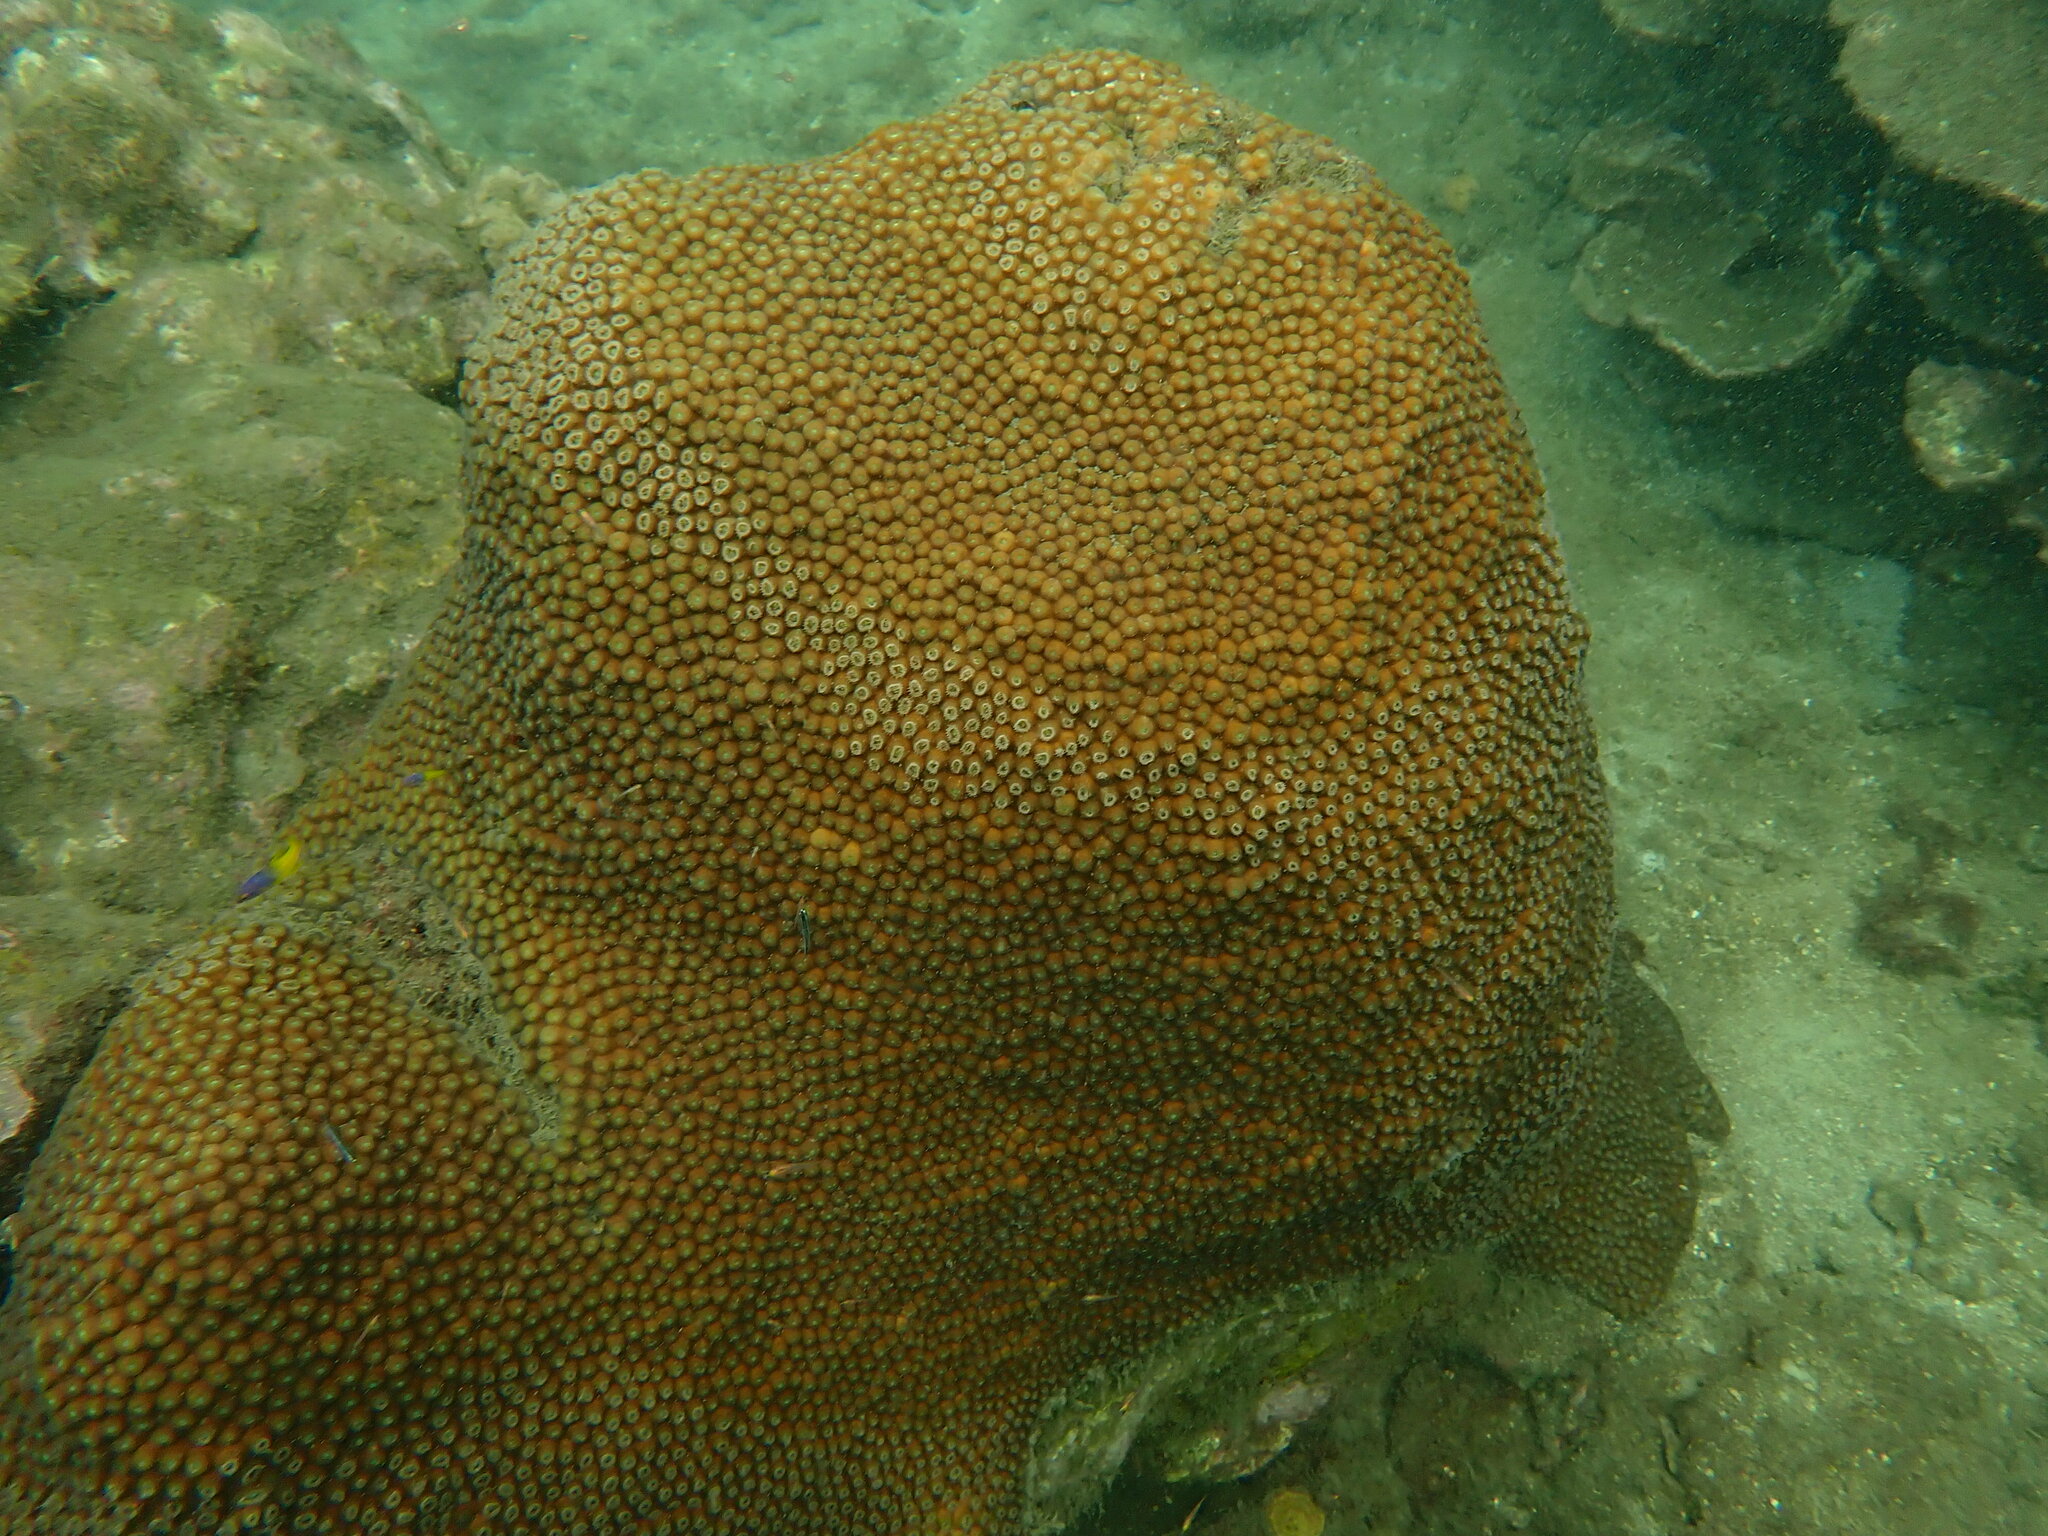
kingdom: Animalia
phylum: Cnidaria
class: Anthozoa
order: Scleractinia
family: Montastraeidae
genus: Montastraea
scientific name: Montastraea cavernosa
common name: Great star coral
